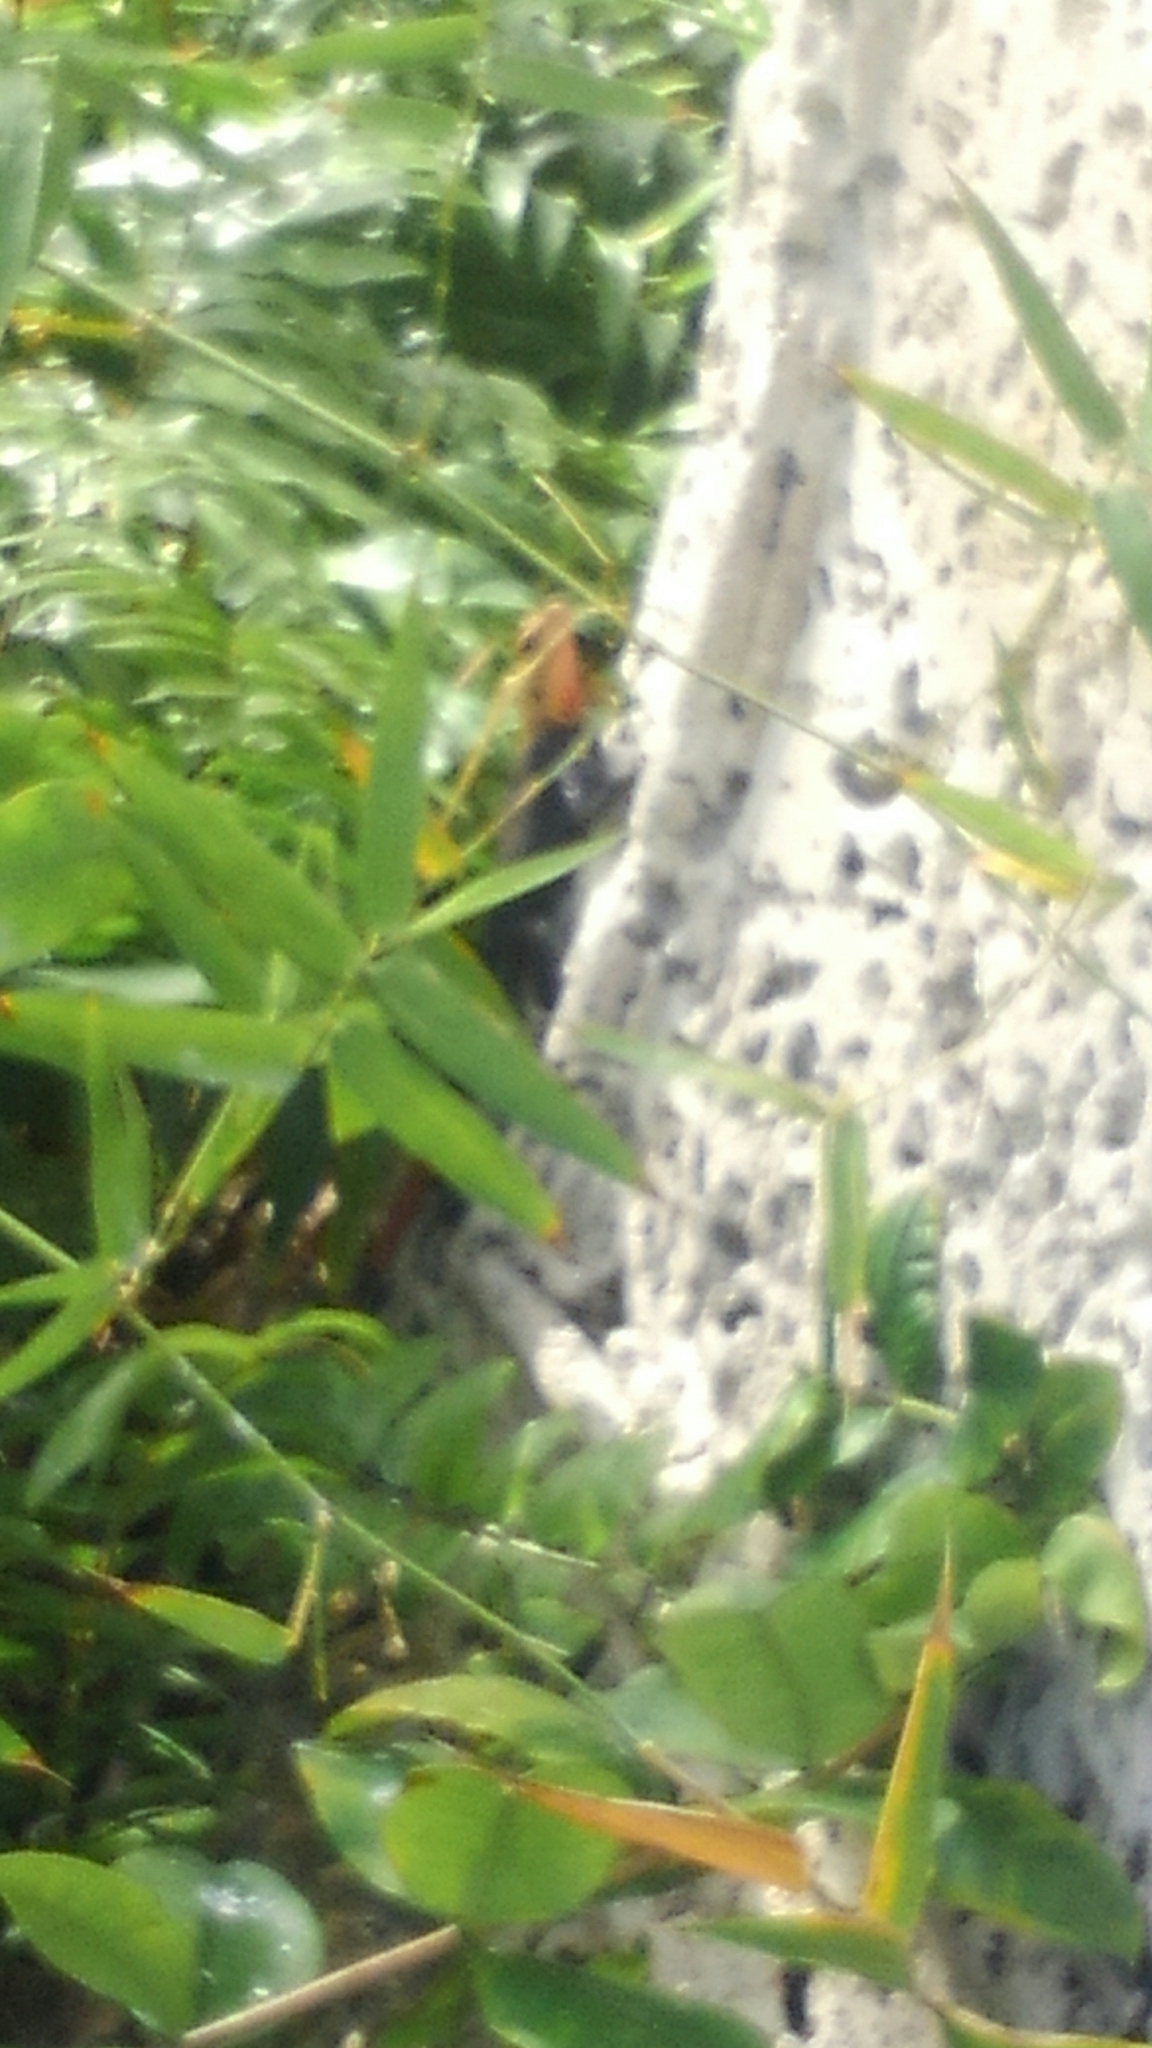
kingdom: Animalia
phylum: Chordata
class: Squamata
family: Agamidae
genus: Agama
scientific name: Agama picticauda
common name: Red-headed agama
